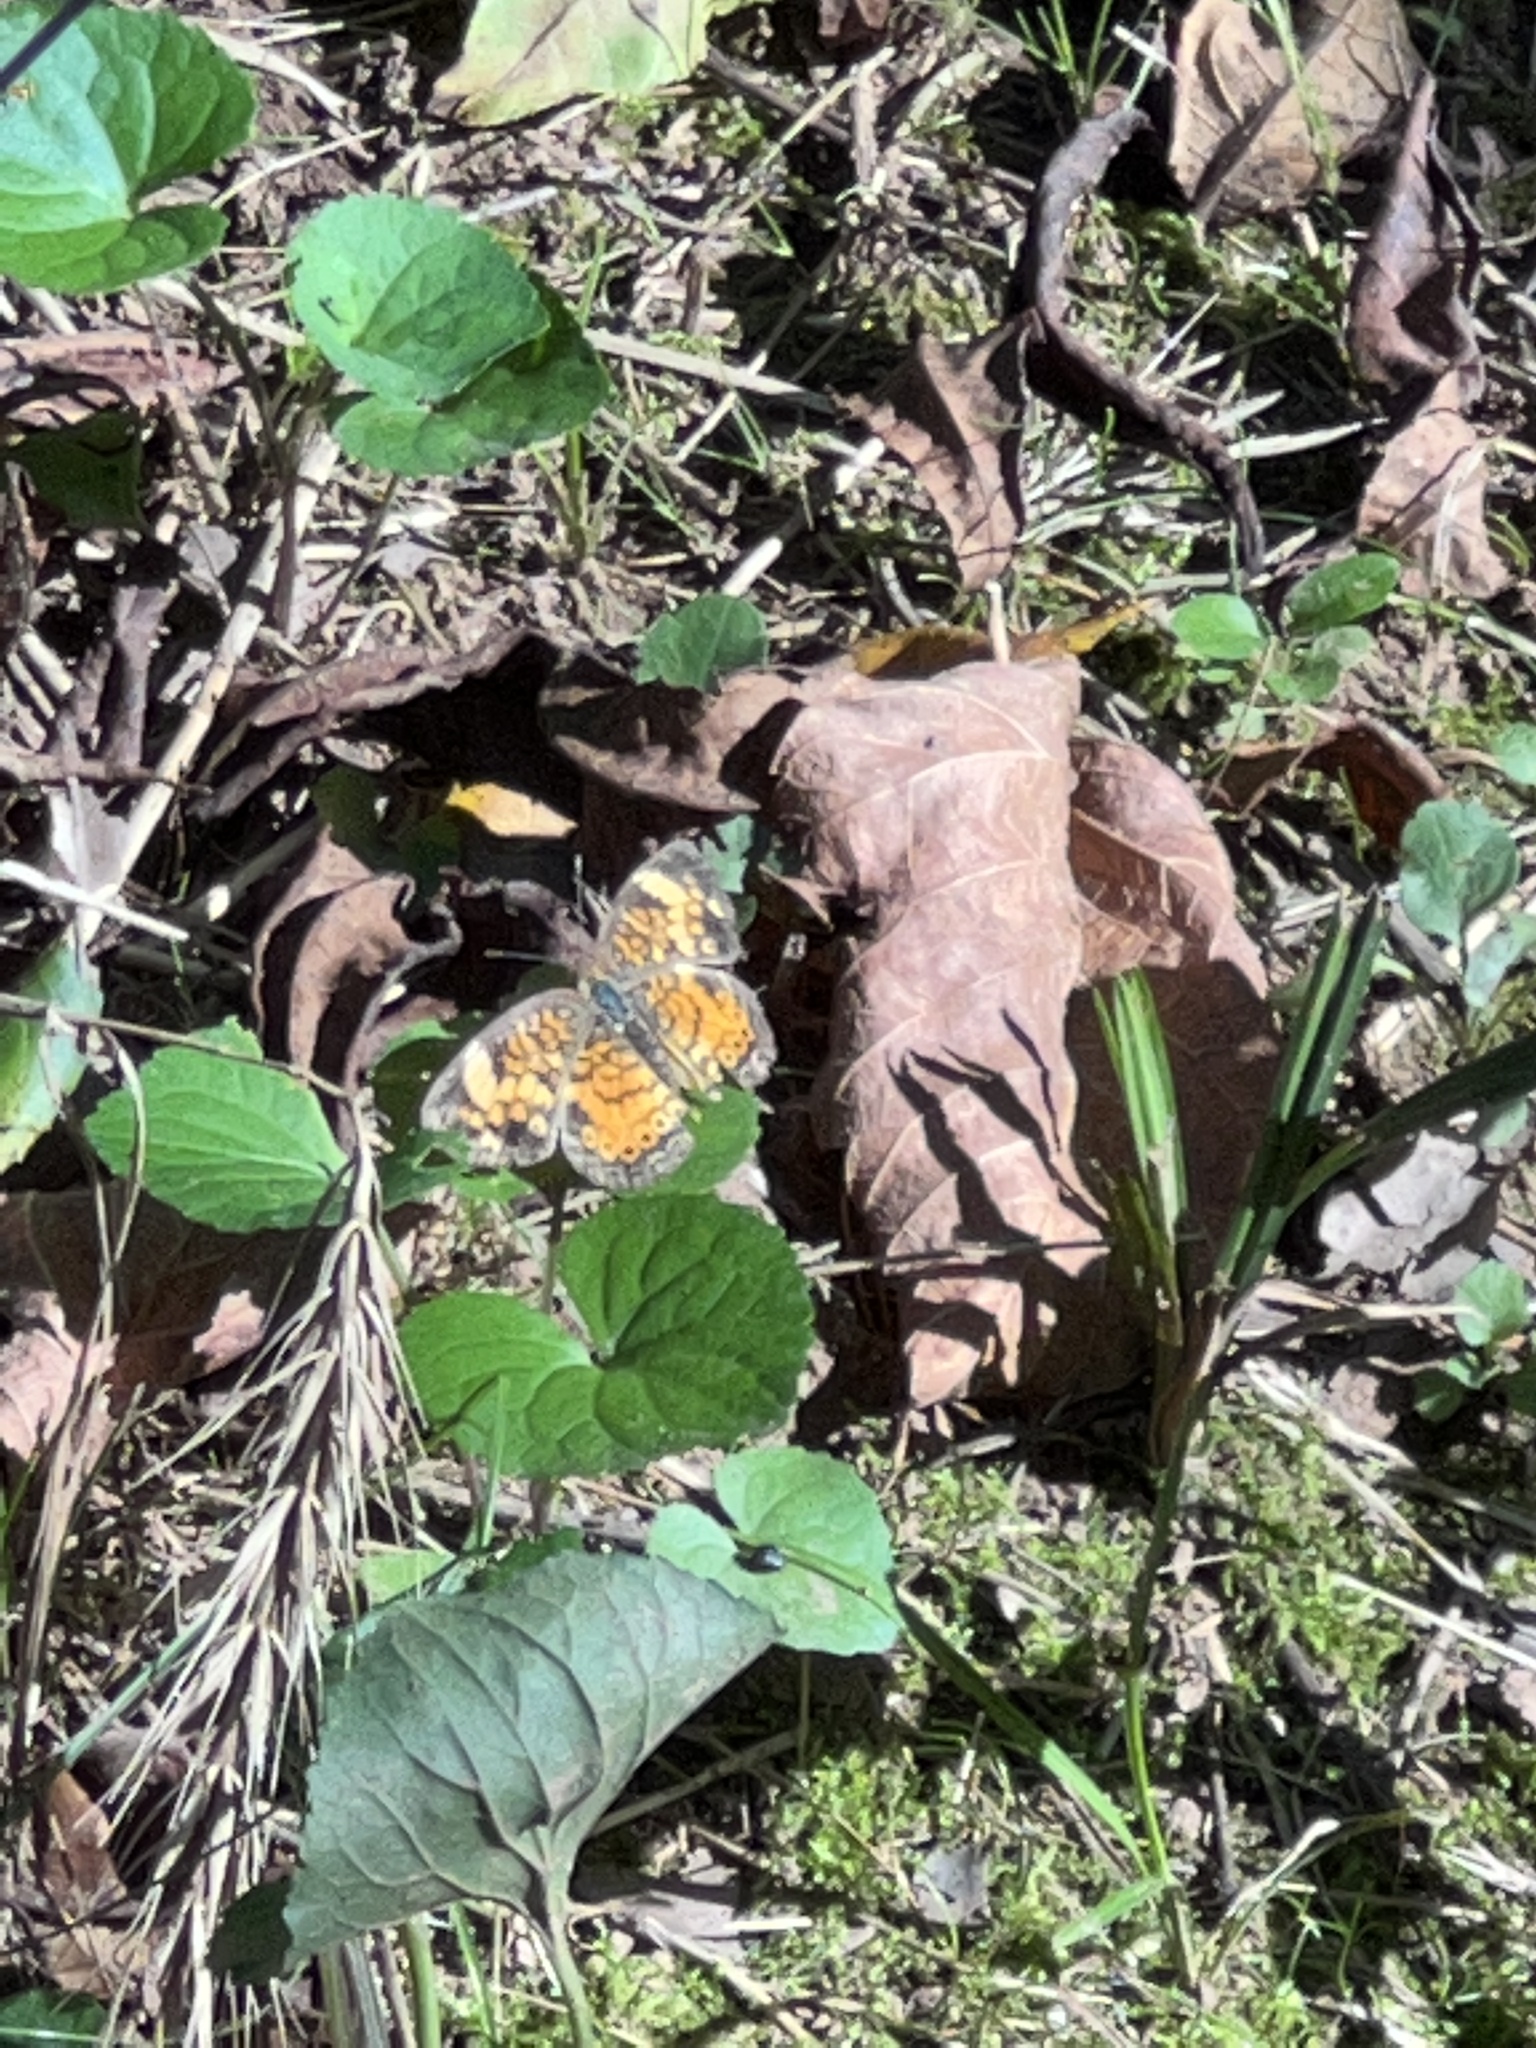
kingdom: Animalia
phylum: Arthropoda
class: Insecta
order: Lepidoptera
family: Nymphalidae
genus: Phyciodes
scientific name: Phyciodes tharos
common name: Pearl crescent
